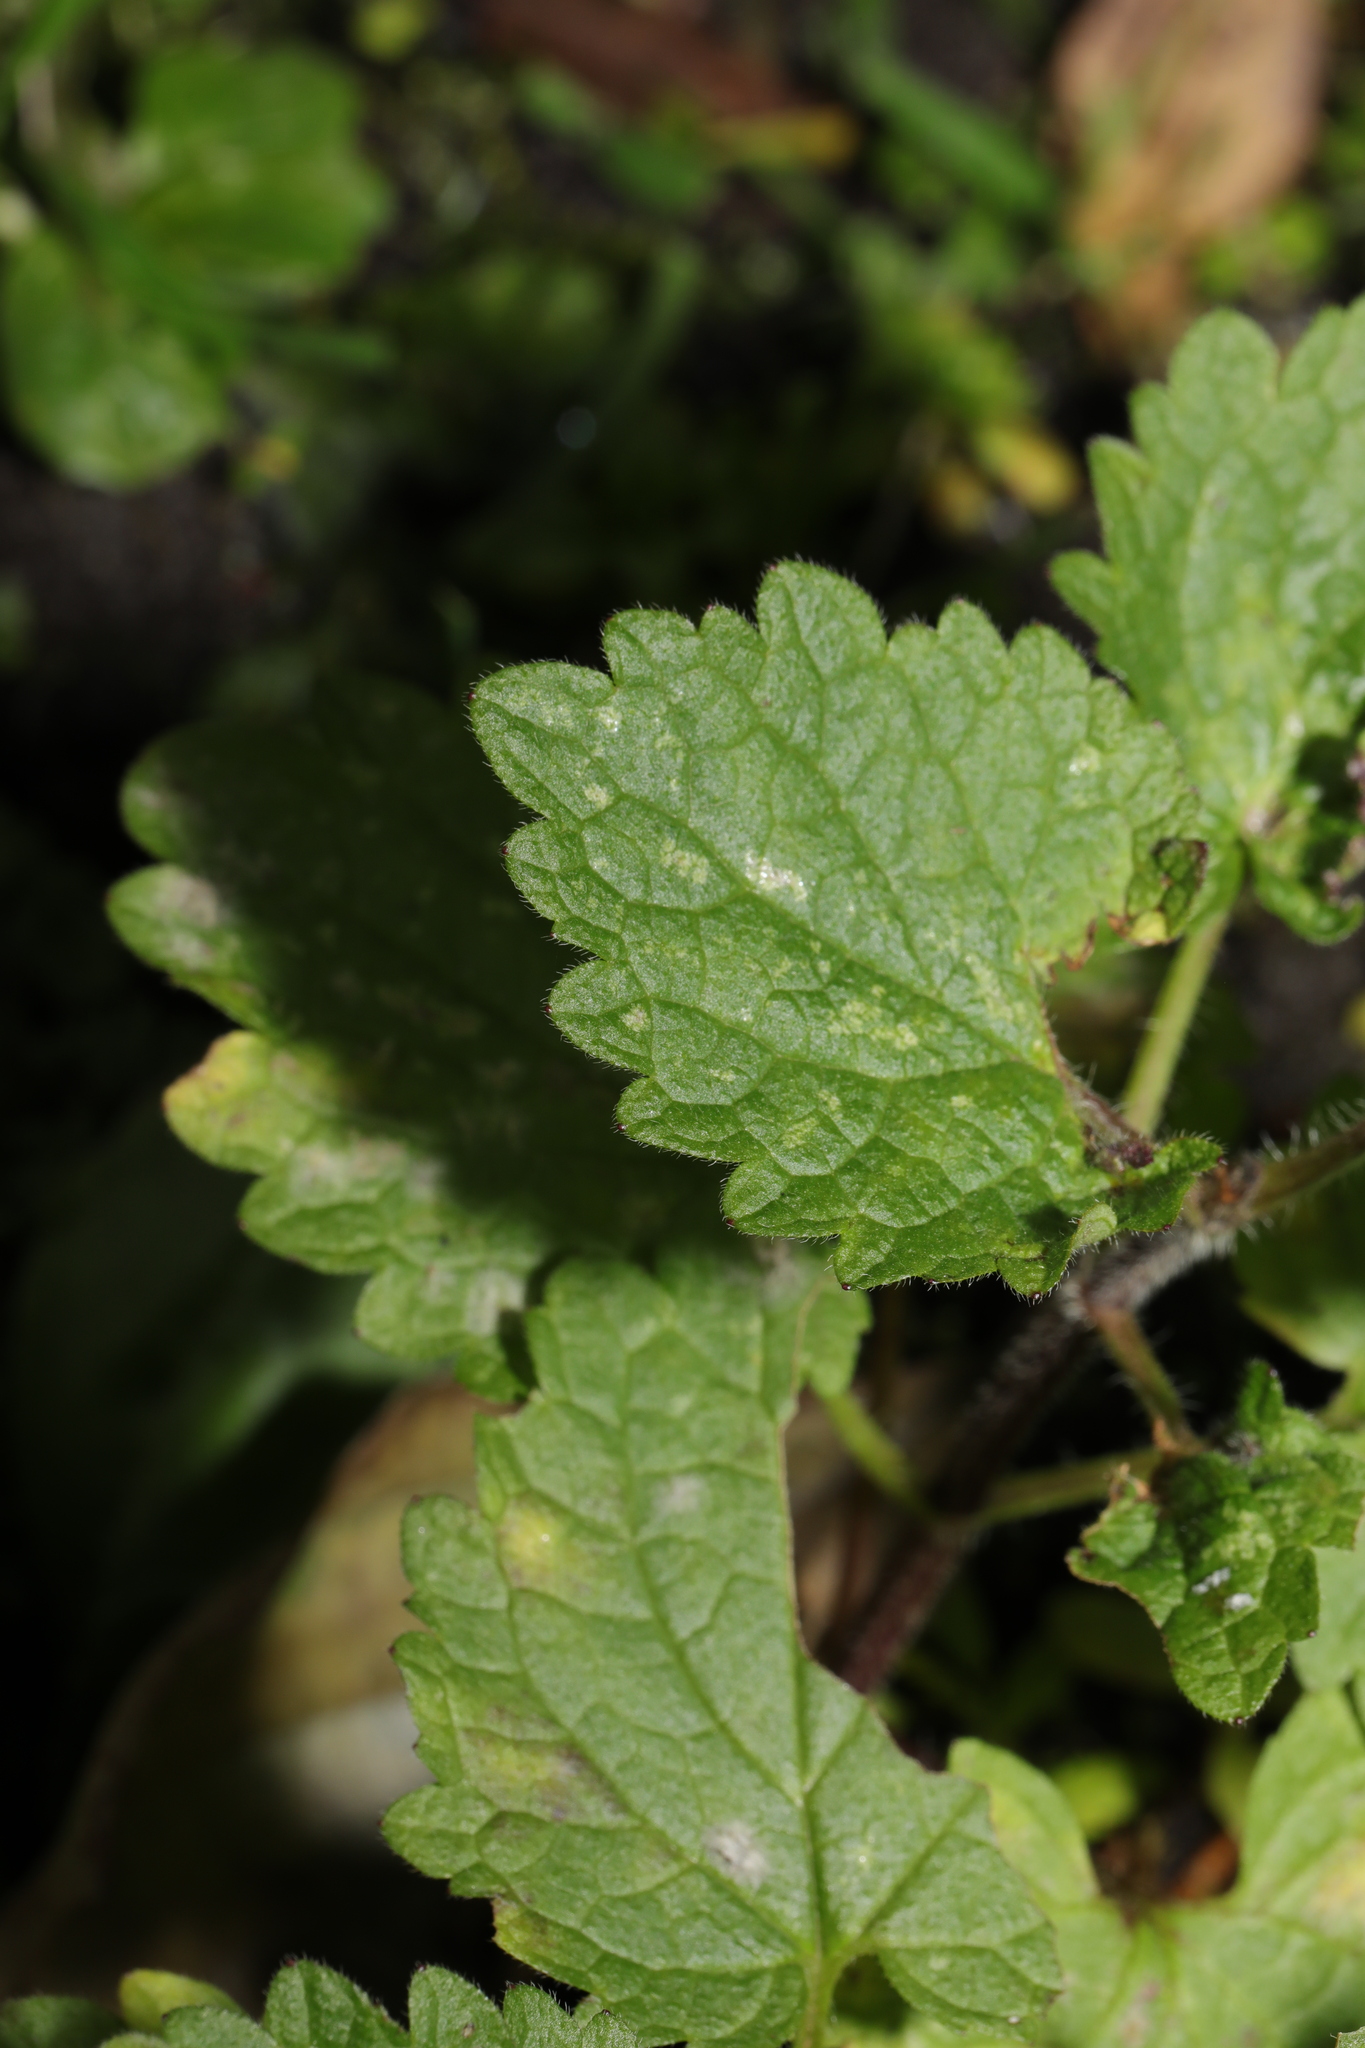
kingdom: Fungi
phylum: Ascomycota
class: Leotiomycetes
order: Helotiales
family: Erysiphaceae
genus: Neoerysiphe
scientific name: Neoerysiphe galeopsidis
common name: Mint mildew
